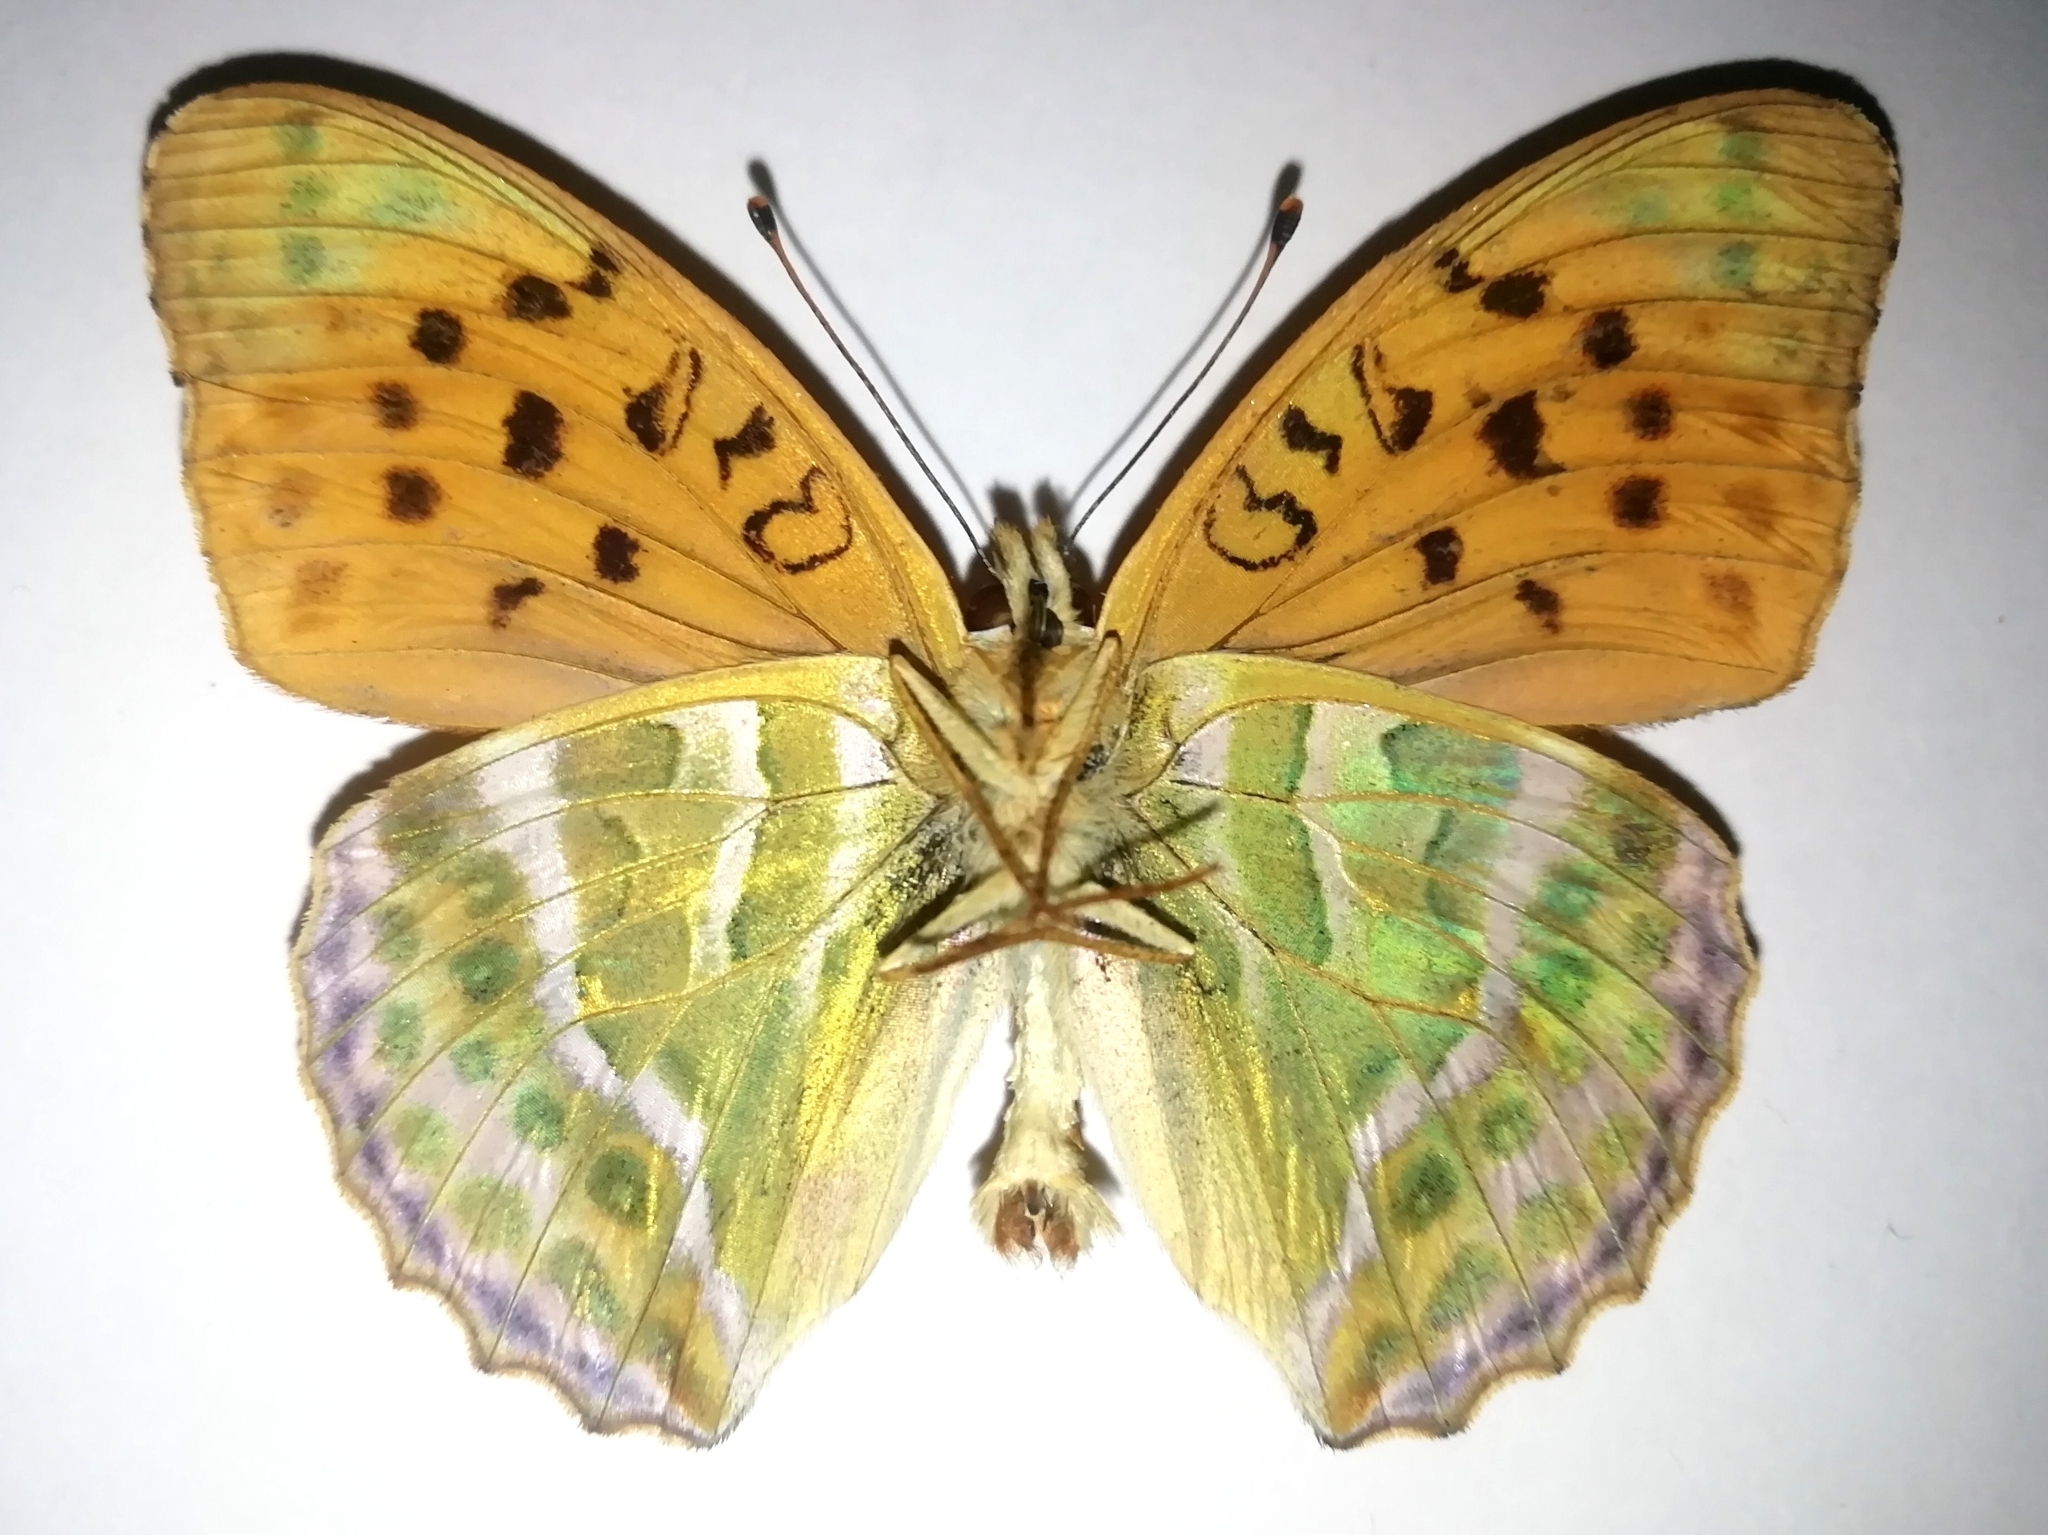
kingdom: Animalia
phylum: Arthropoda
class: Insecta
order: Lepidoptera
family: Nymphalidae
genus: Argynnis
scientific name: Argynnis paphia
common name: Silver-washed fritillary
